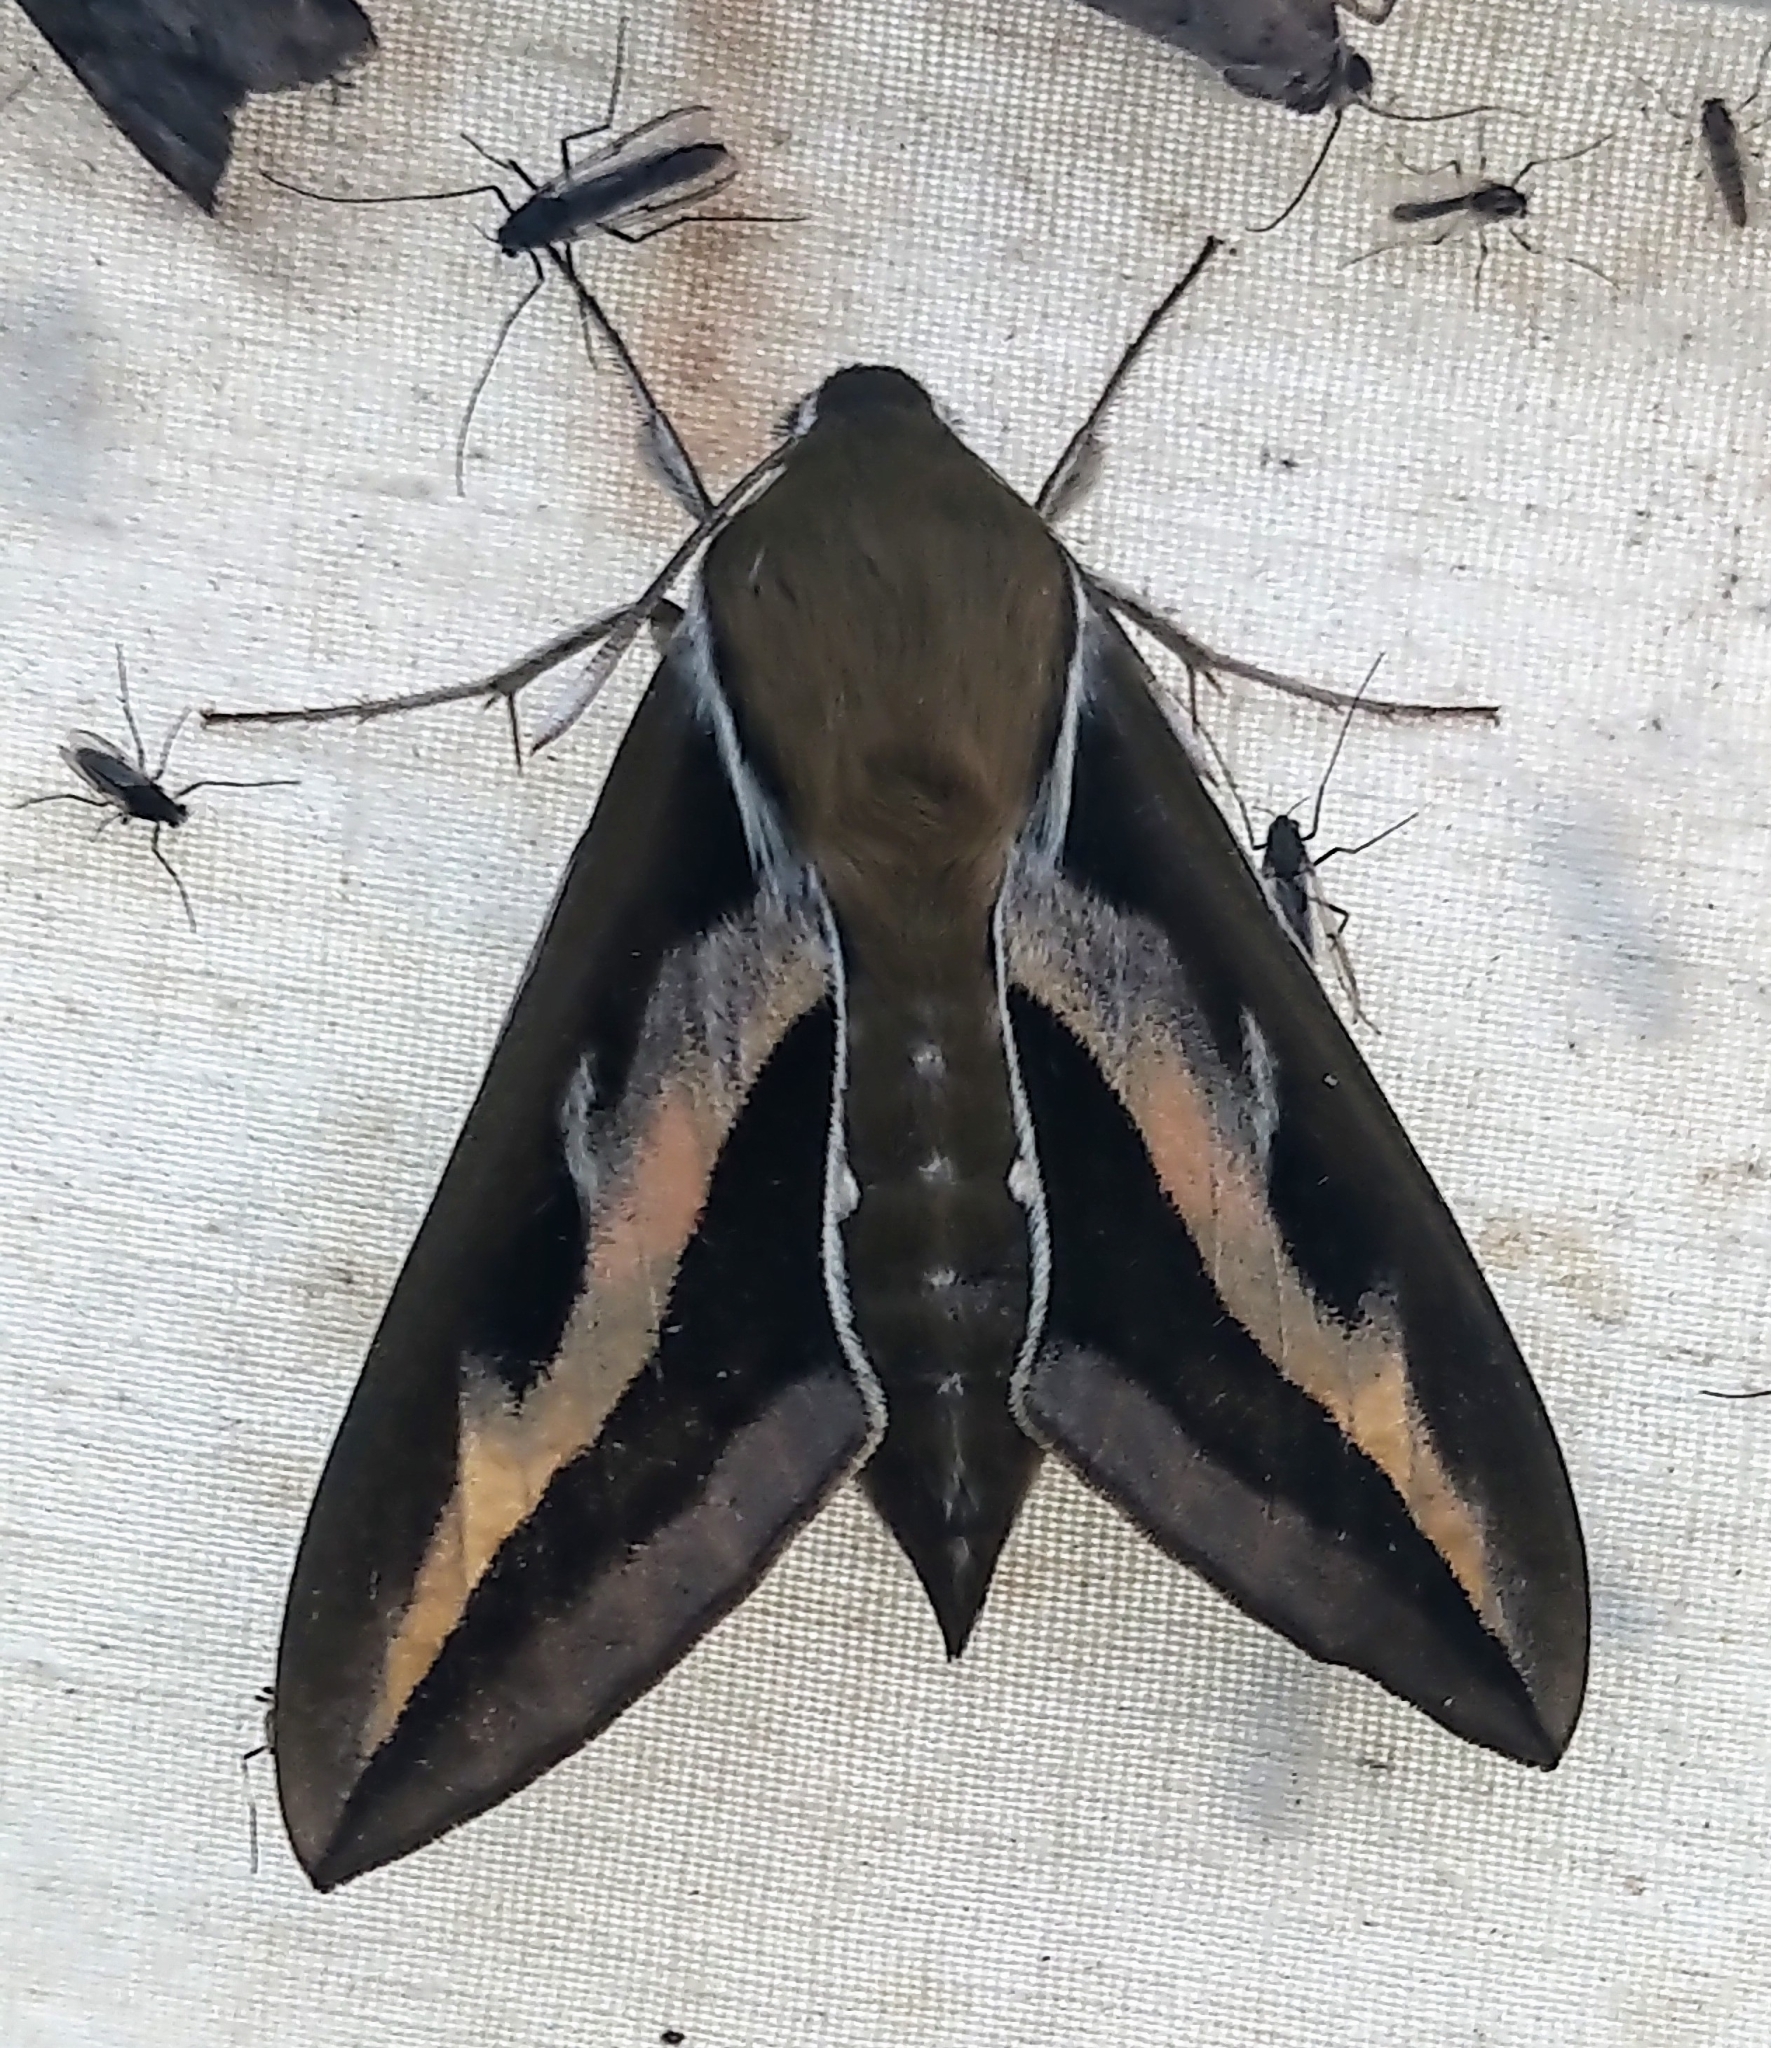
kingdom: Animalia
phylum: Arthropoda
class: Insecta
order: Lepidoptera
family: Sphingidae
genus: Hyles
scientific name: Hyles gallii
